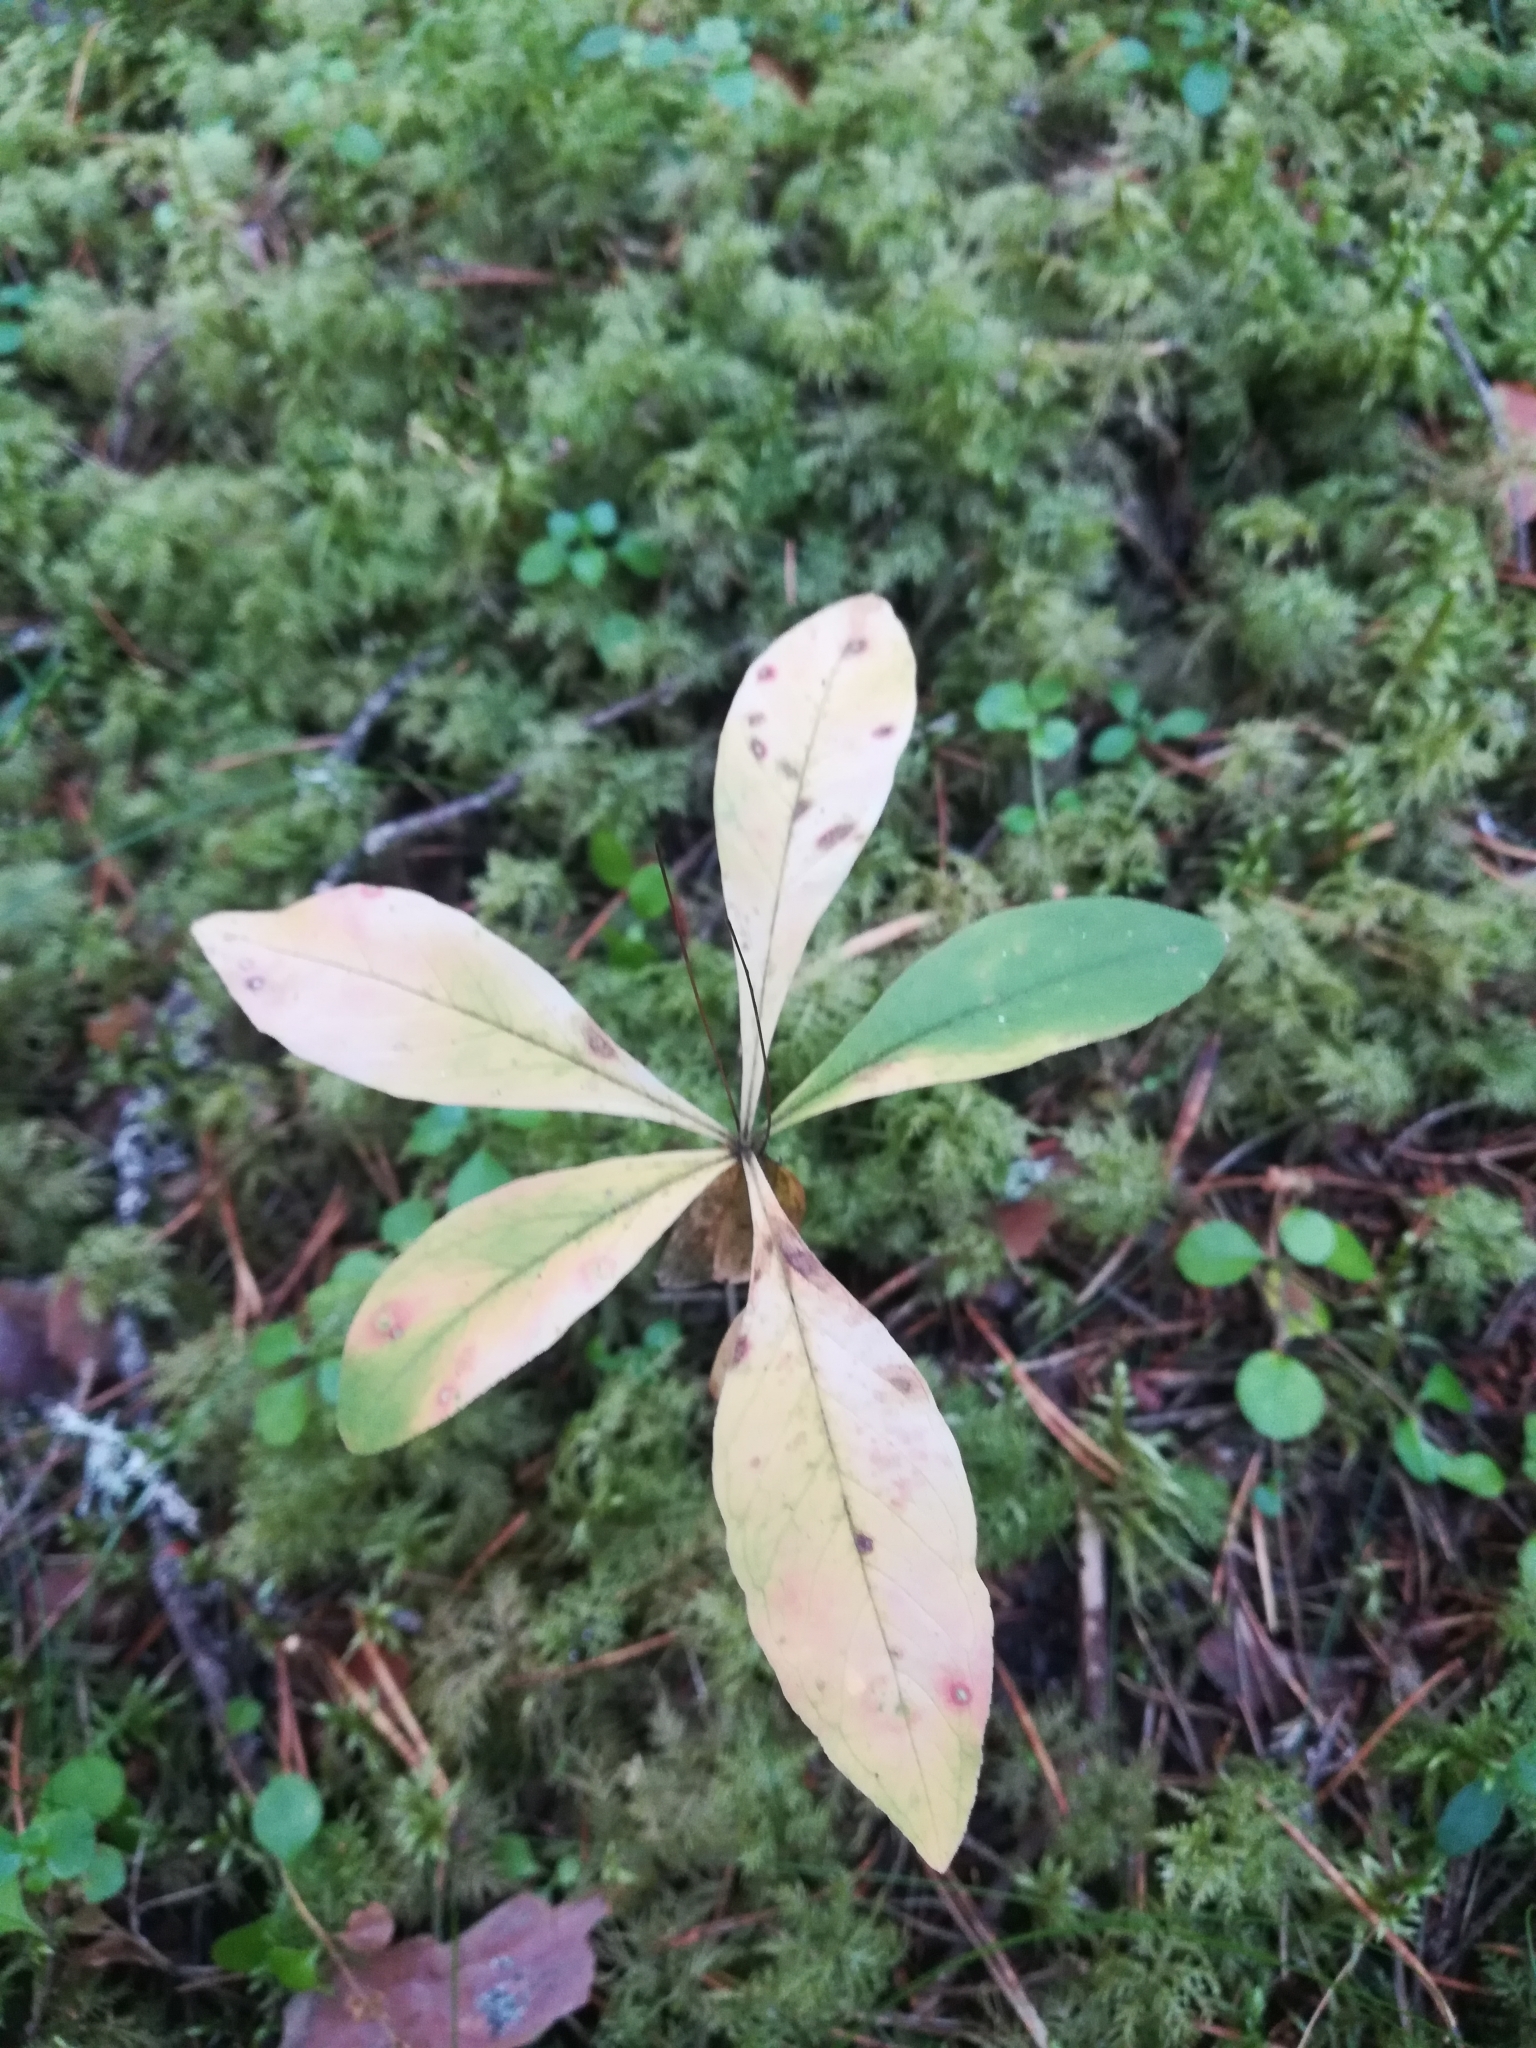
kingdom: Plantae
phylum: Tracheophyta
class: Magnoliopsida
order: Ericales
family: Primulaceae
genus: Lysimachia
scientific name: Lysimachia europaea
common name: Arctic starflower
